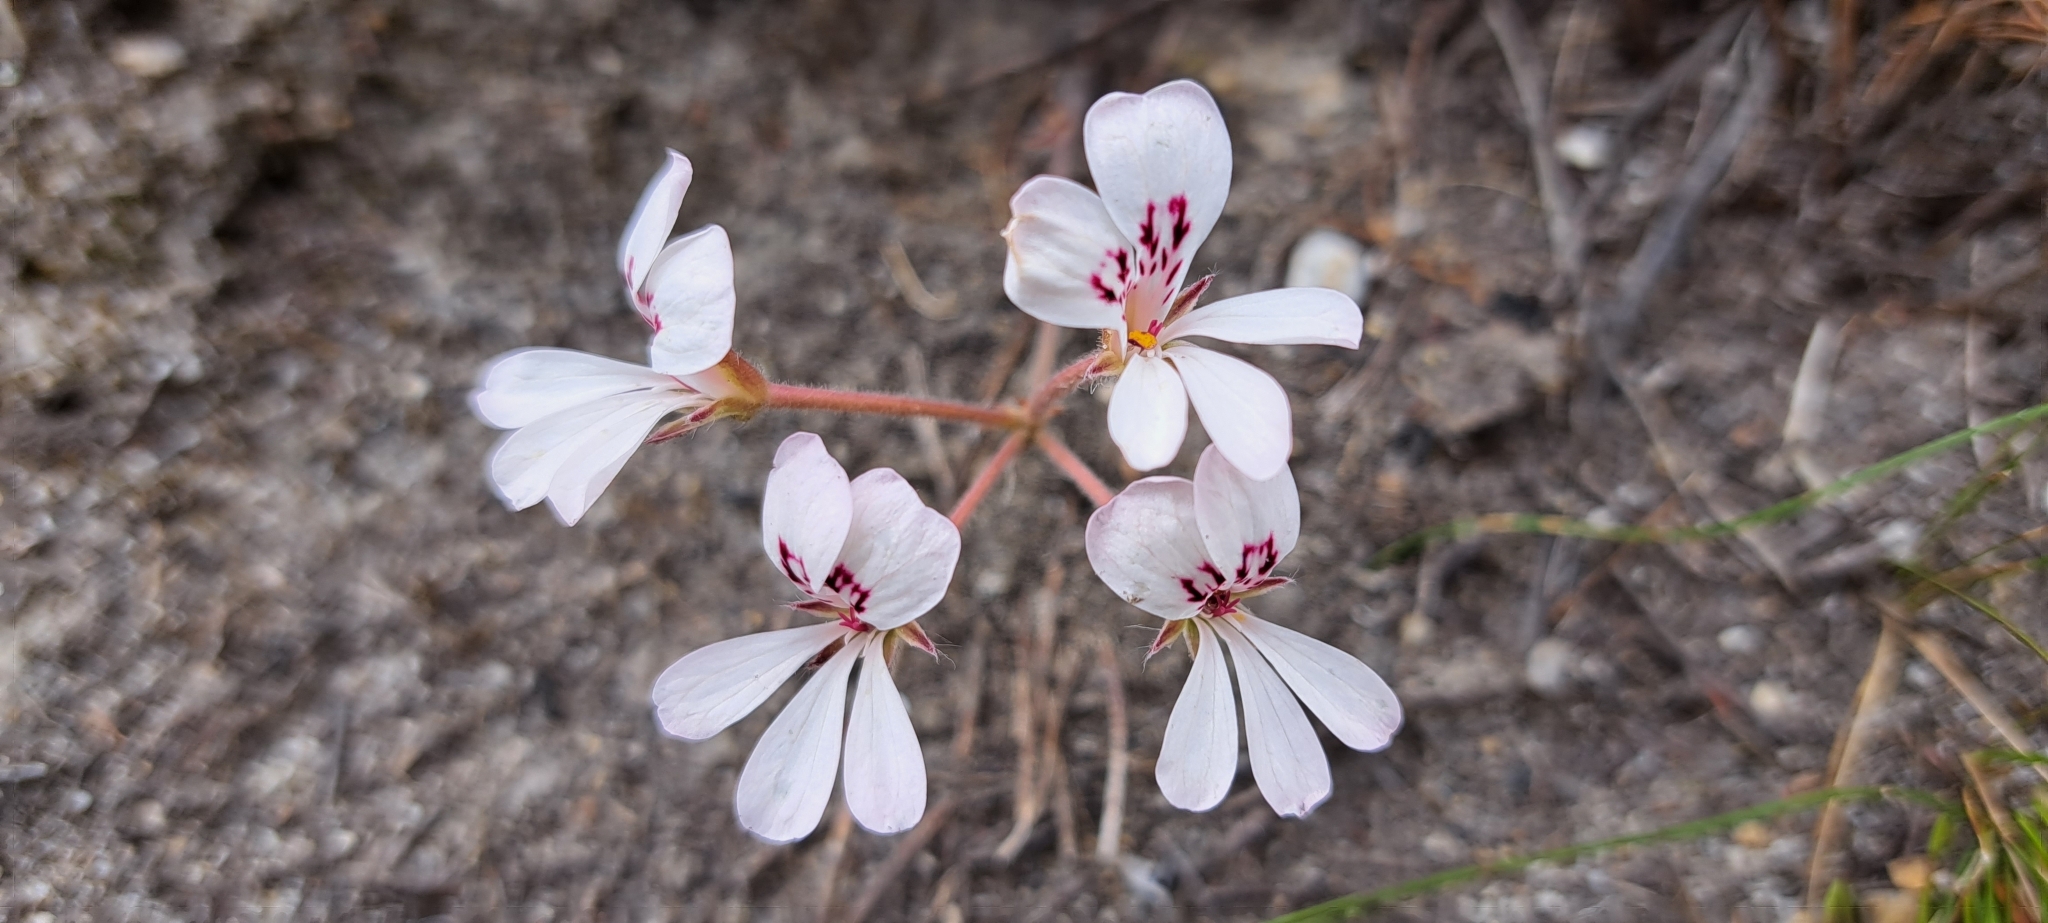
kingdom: Plantae
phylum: Tracheophyta
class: Magnoliopsida
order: Geraniales
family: Geraniaceae
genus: Pelargonium
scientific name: Pelargonium pinnatum
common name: Pinnated pelargonium
